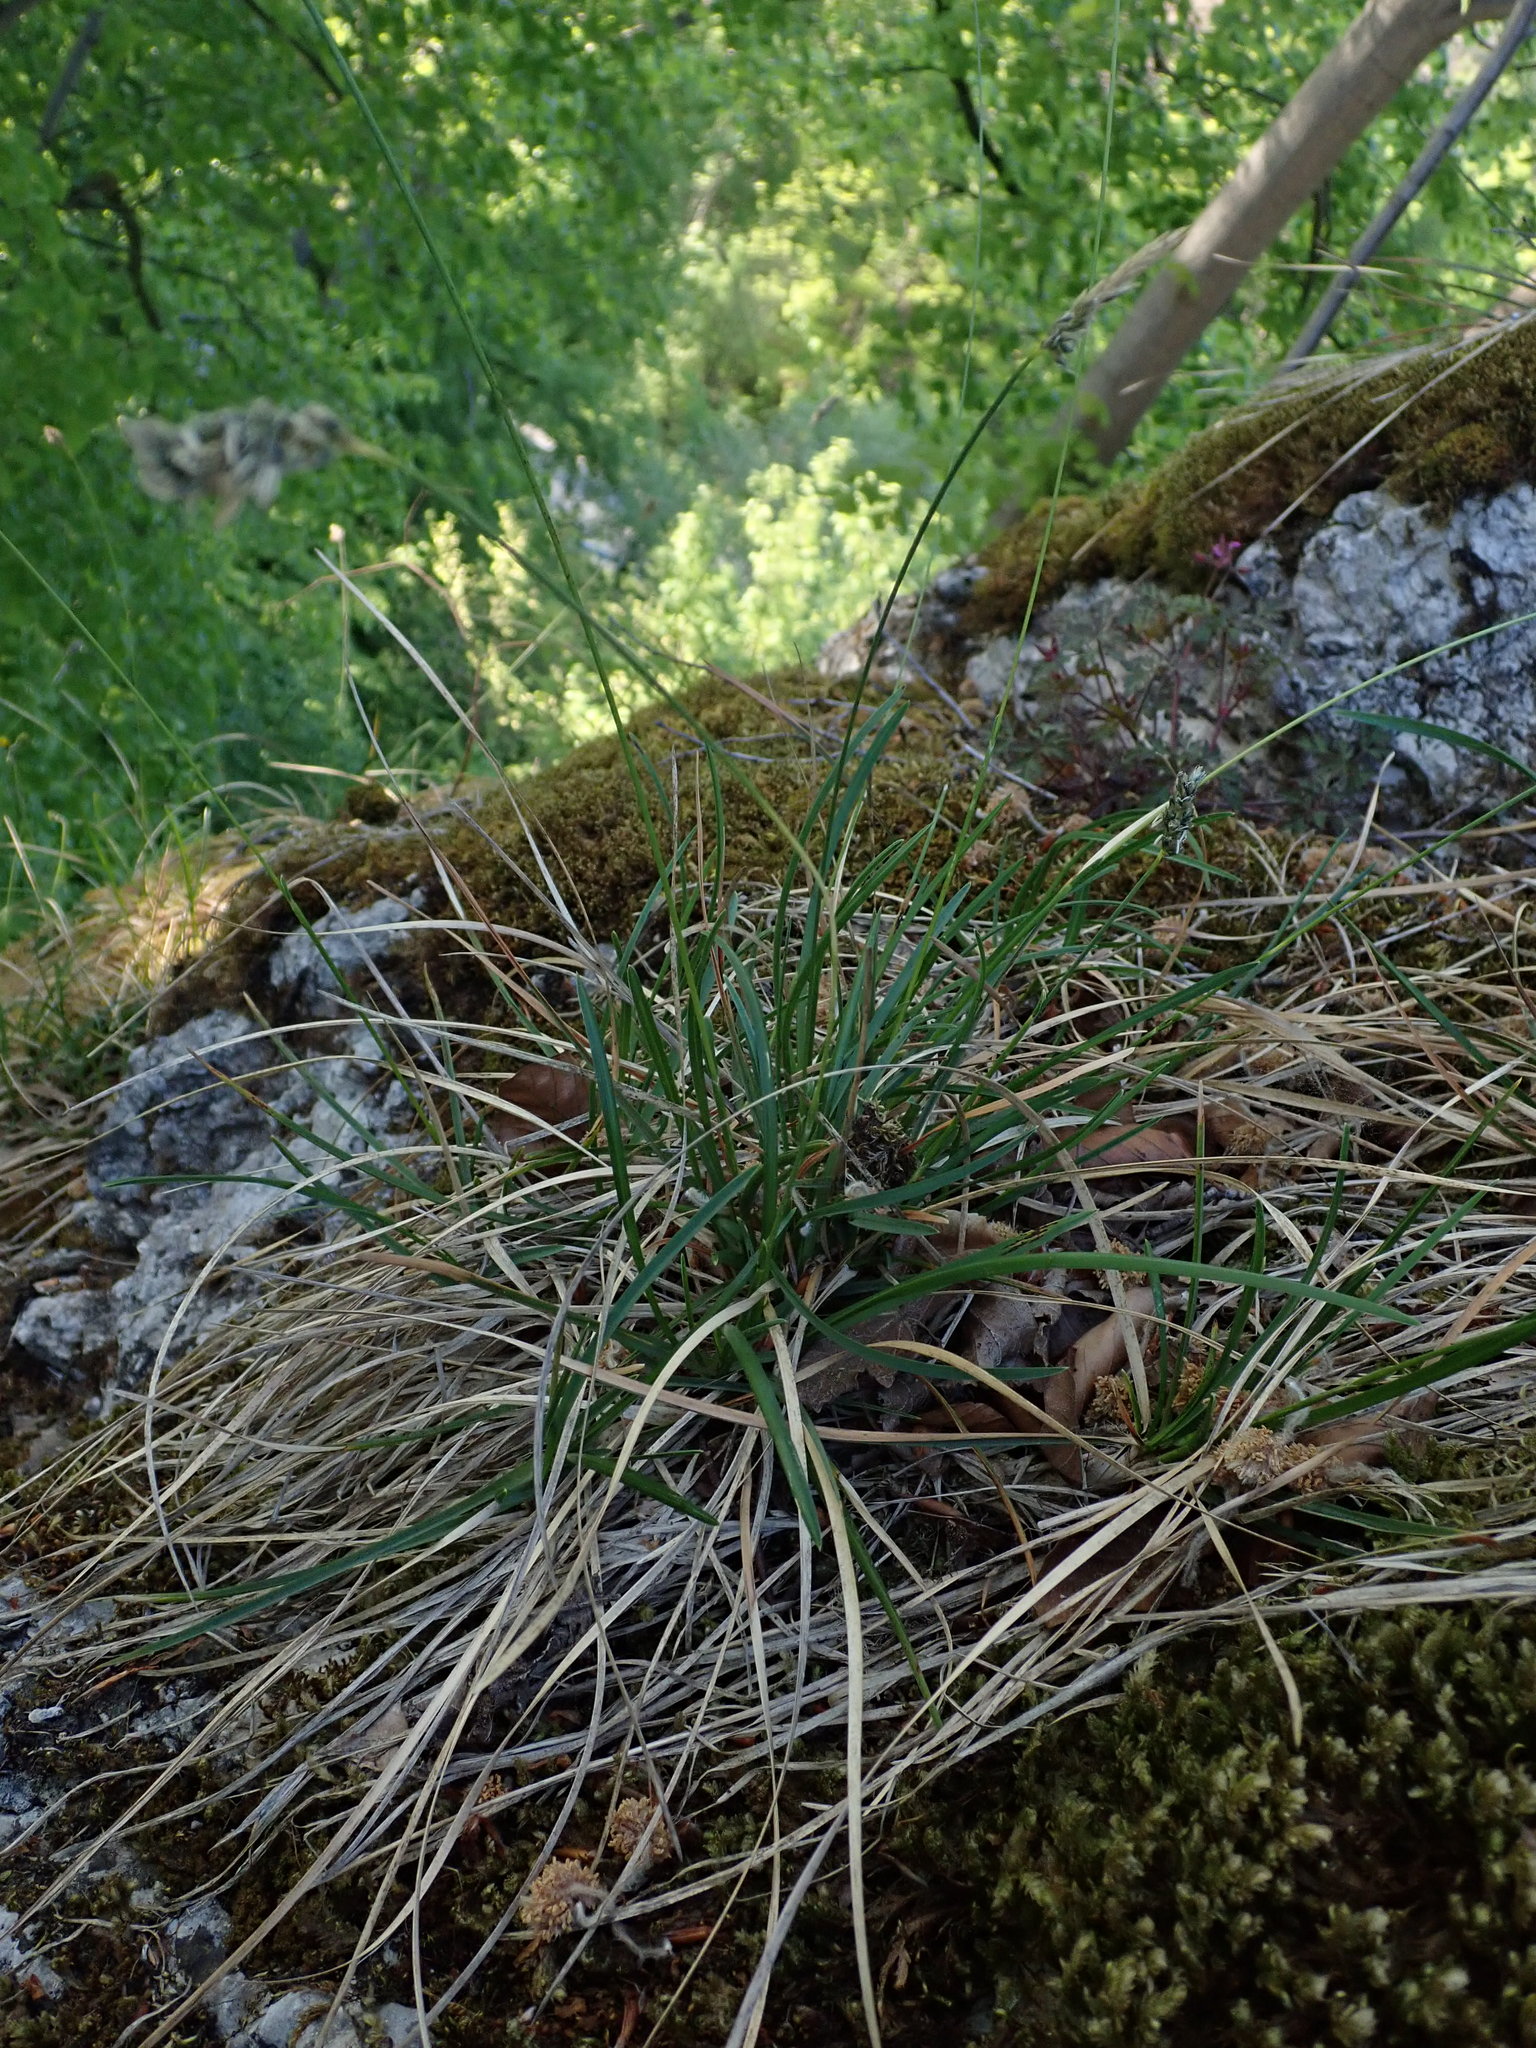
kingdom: Plantae
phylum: Tracheophyta
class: Liliopsida
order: Poales
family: Poaceae
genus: Sesleria
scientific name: Sesleria caerulea
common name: Blue moor-grass
